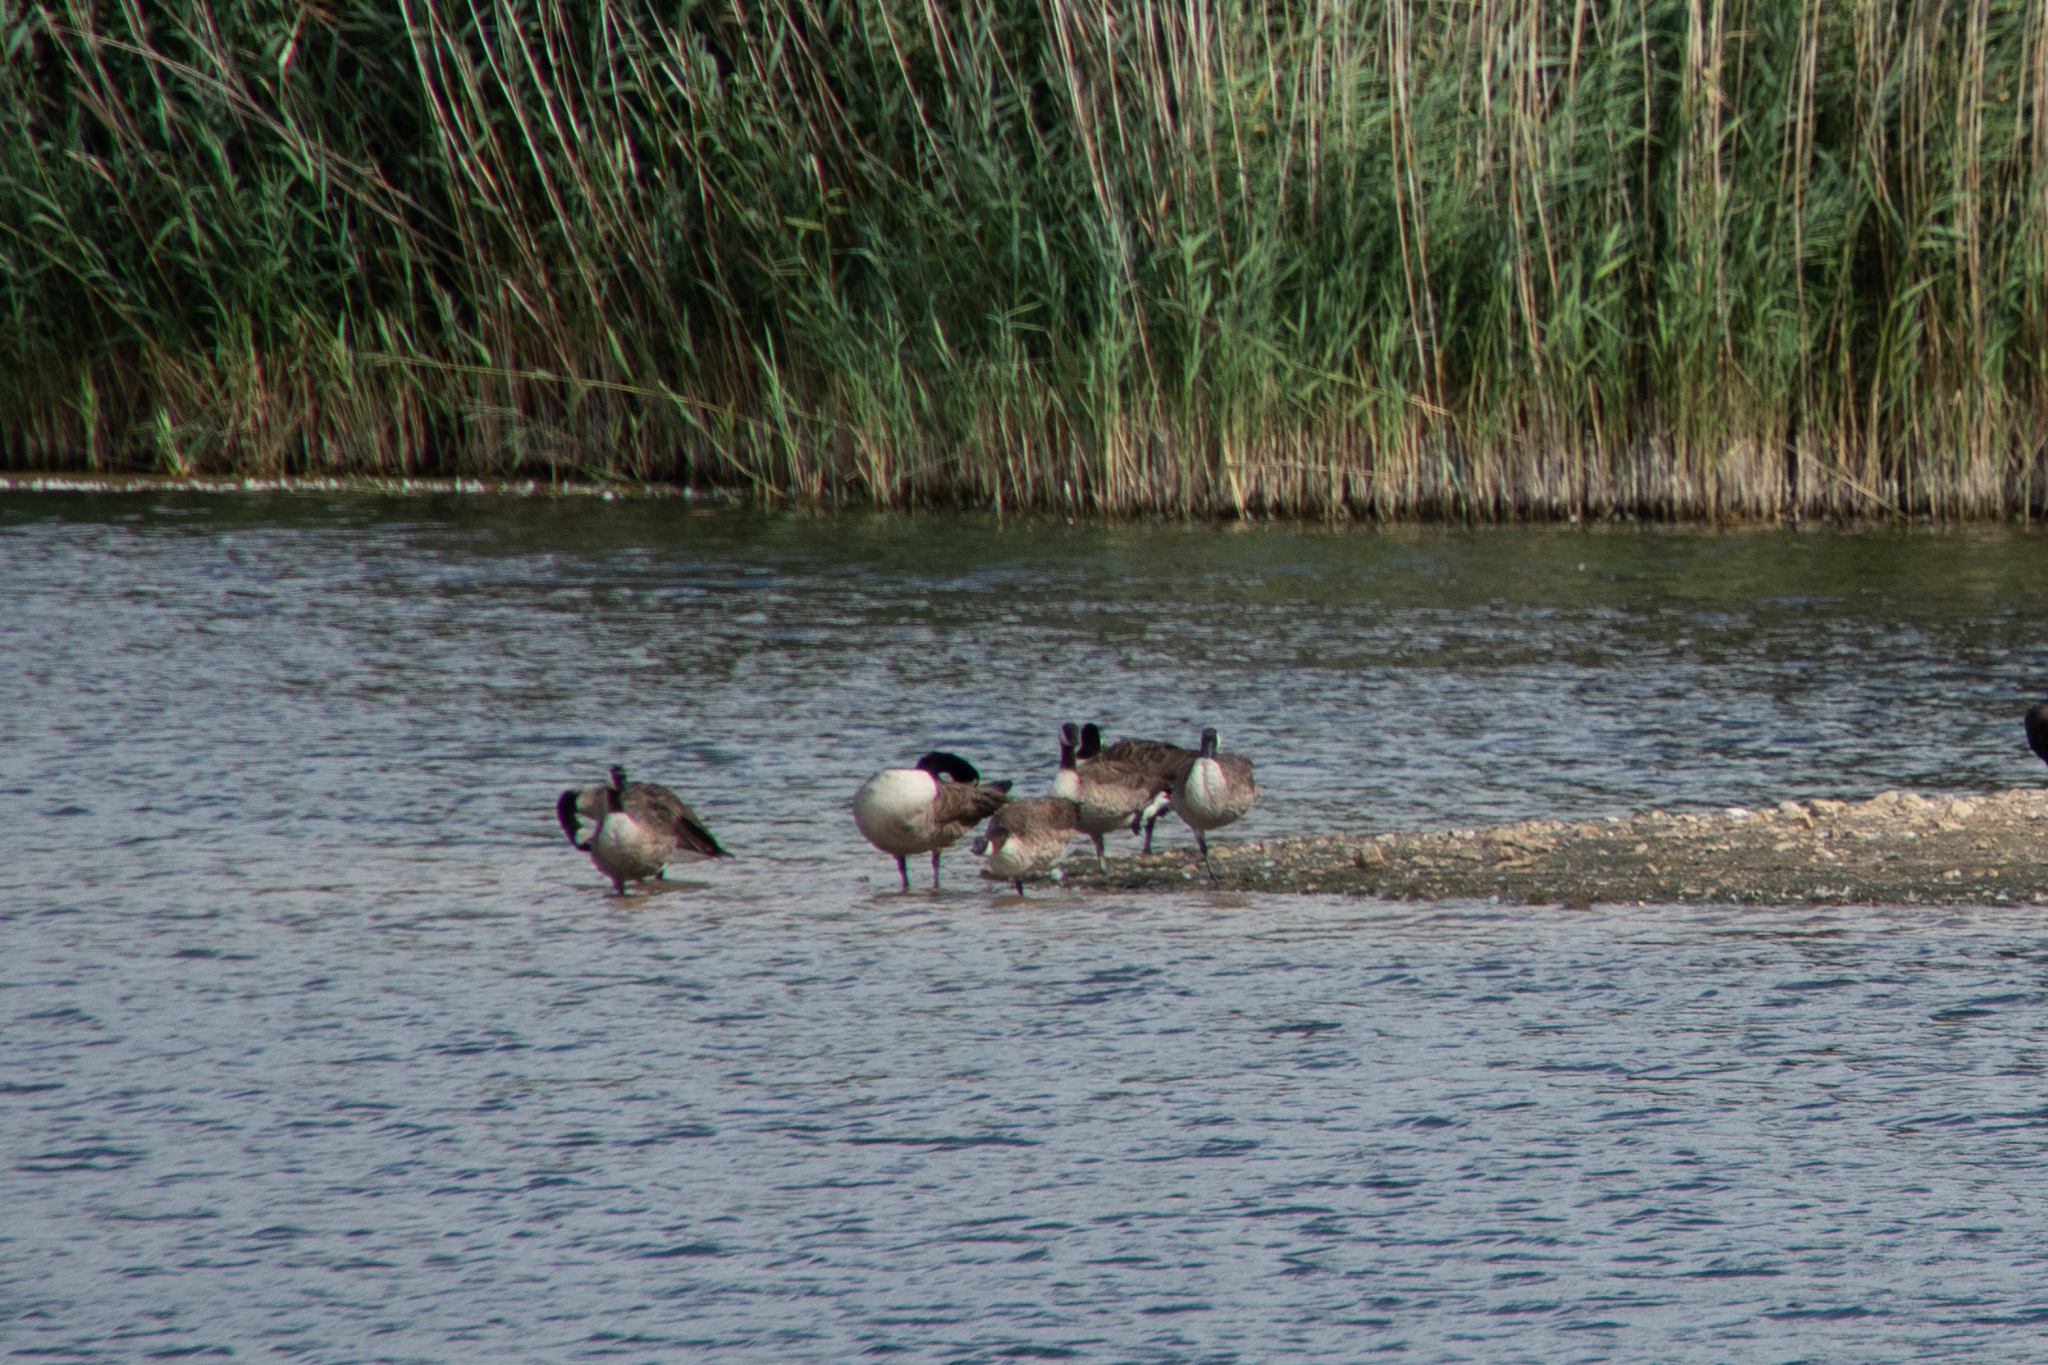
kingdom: Animalia
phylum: Chordata
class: Aves
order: Anseriformes
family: Anatidae
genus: Branta
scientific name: Branta canadensis
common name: Canada goose
